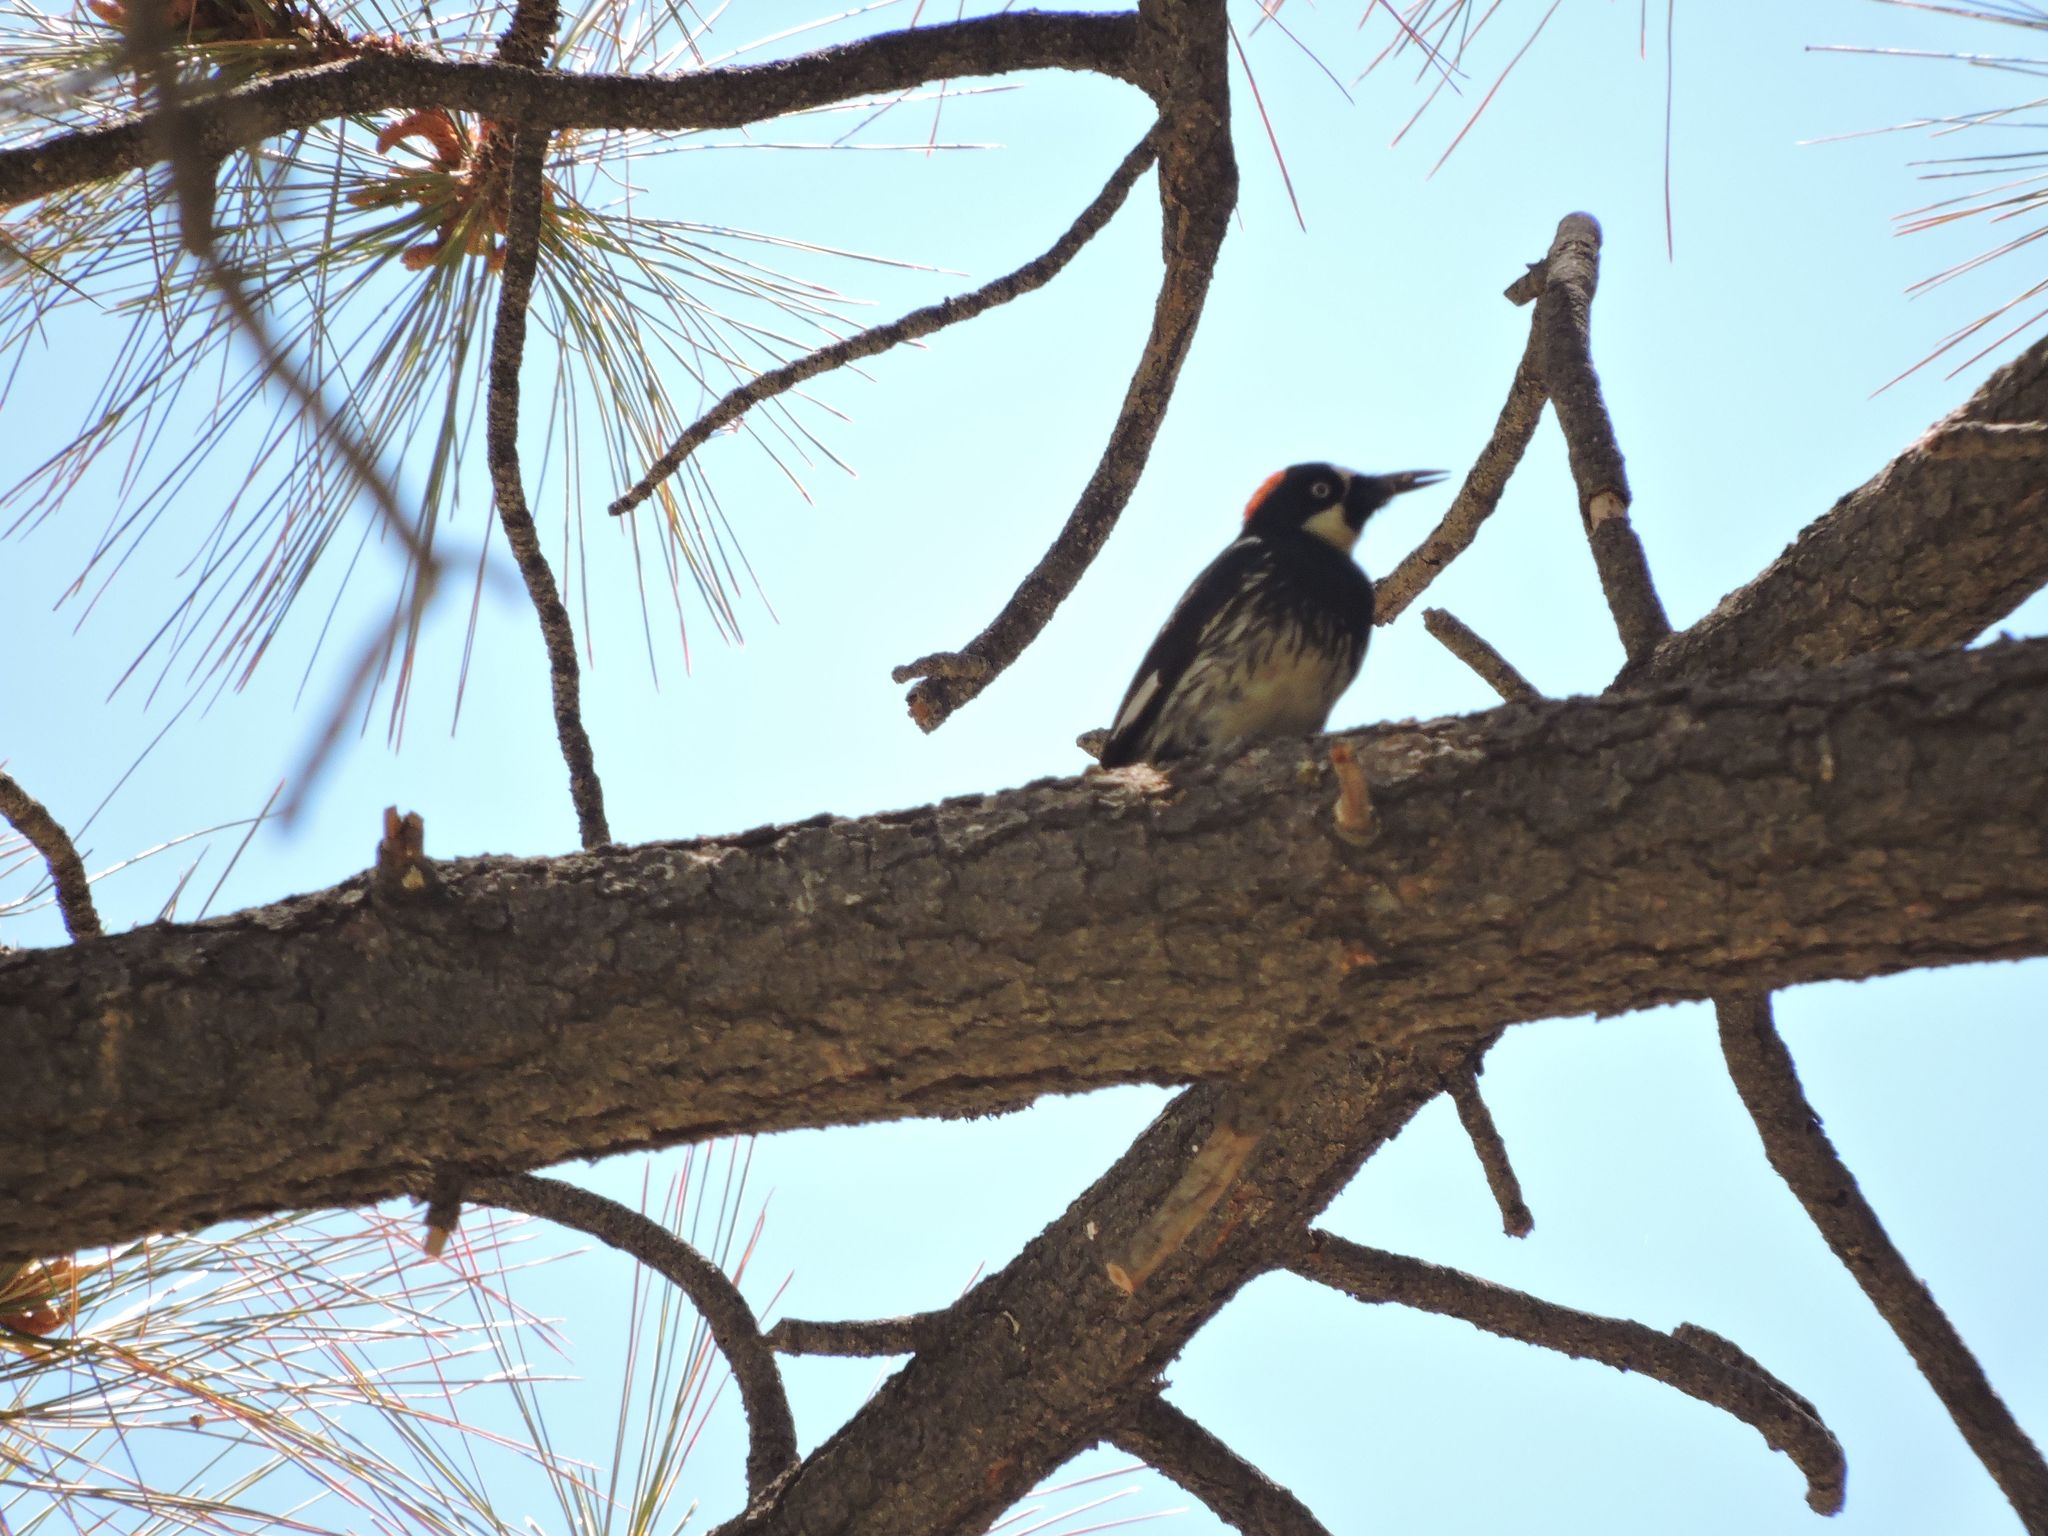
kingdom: Animalia
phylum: Chordata
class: Aves
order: Piciformes
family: Picidae
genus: Melanerpes
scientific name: Melanerpes formicivorus
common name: Acorn woodpecker
